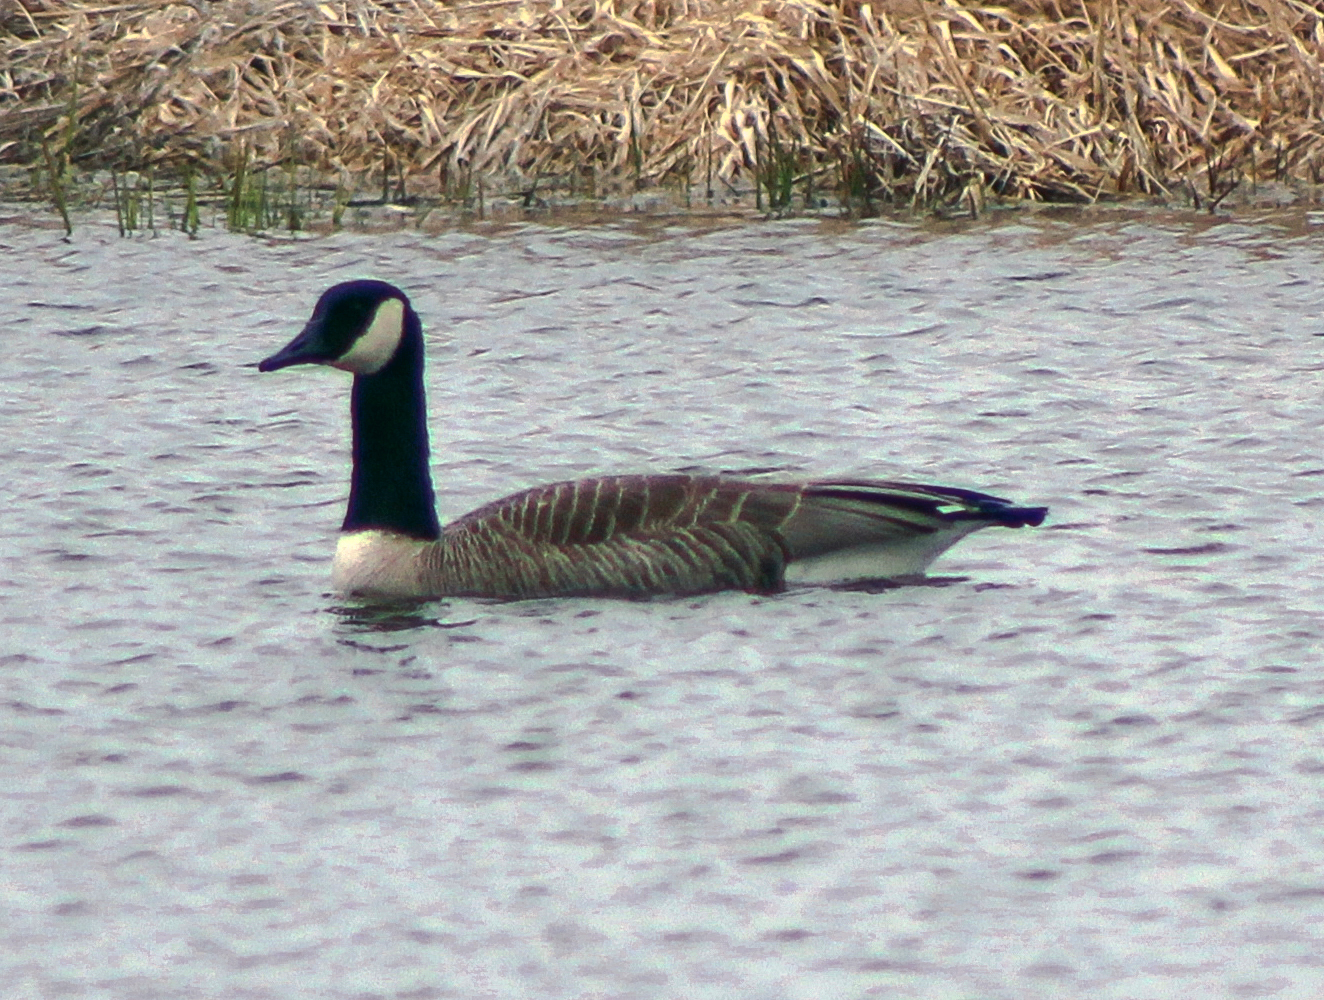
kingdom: Animalia
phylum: Chordata
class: Aves
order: Anseriformes
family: Anatidae
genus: Branta
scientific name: Branta canadensis
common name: Canada goose
